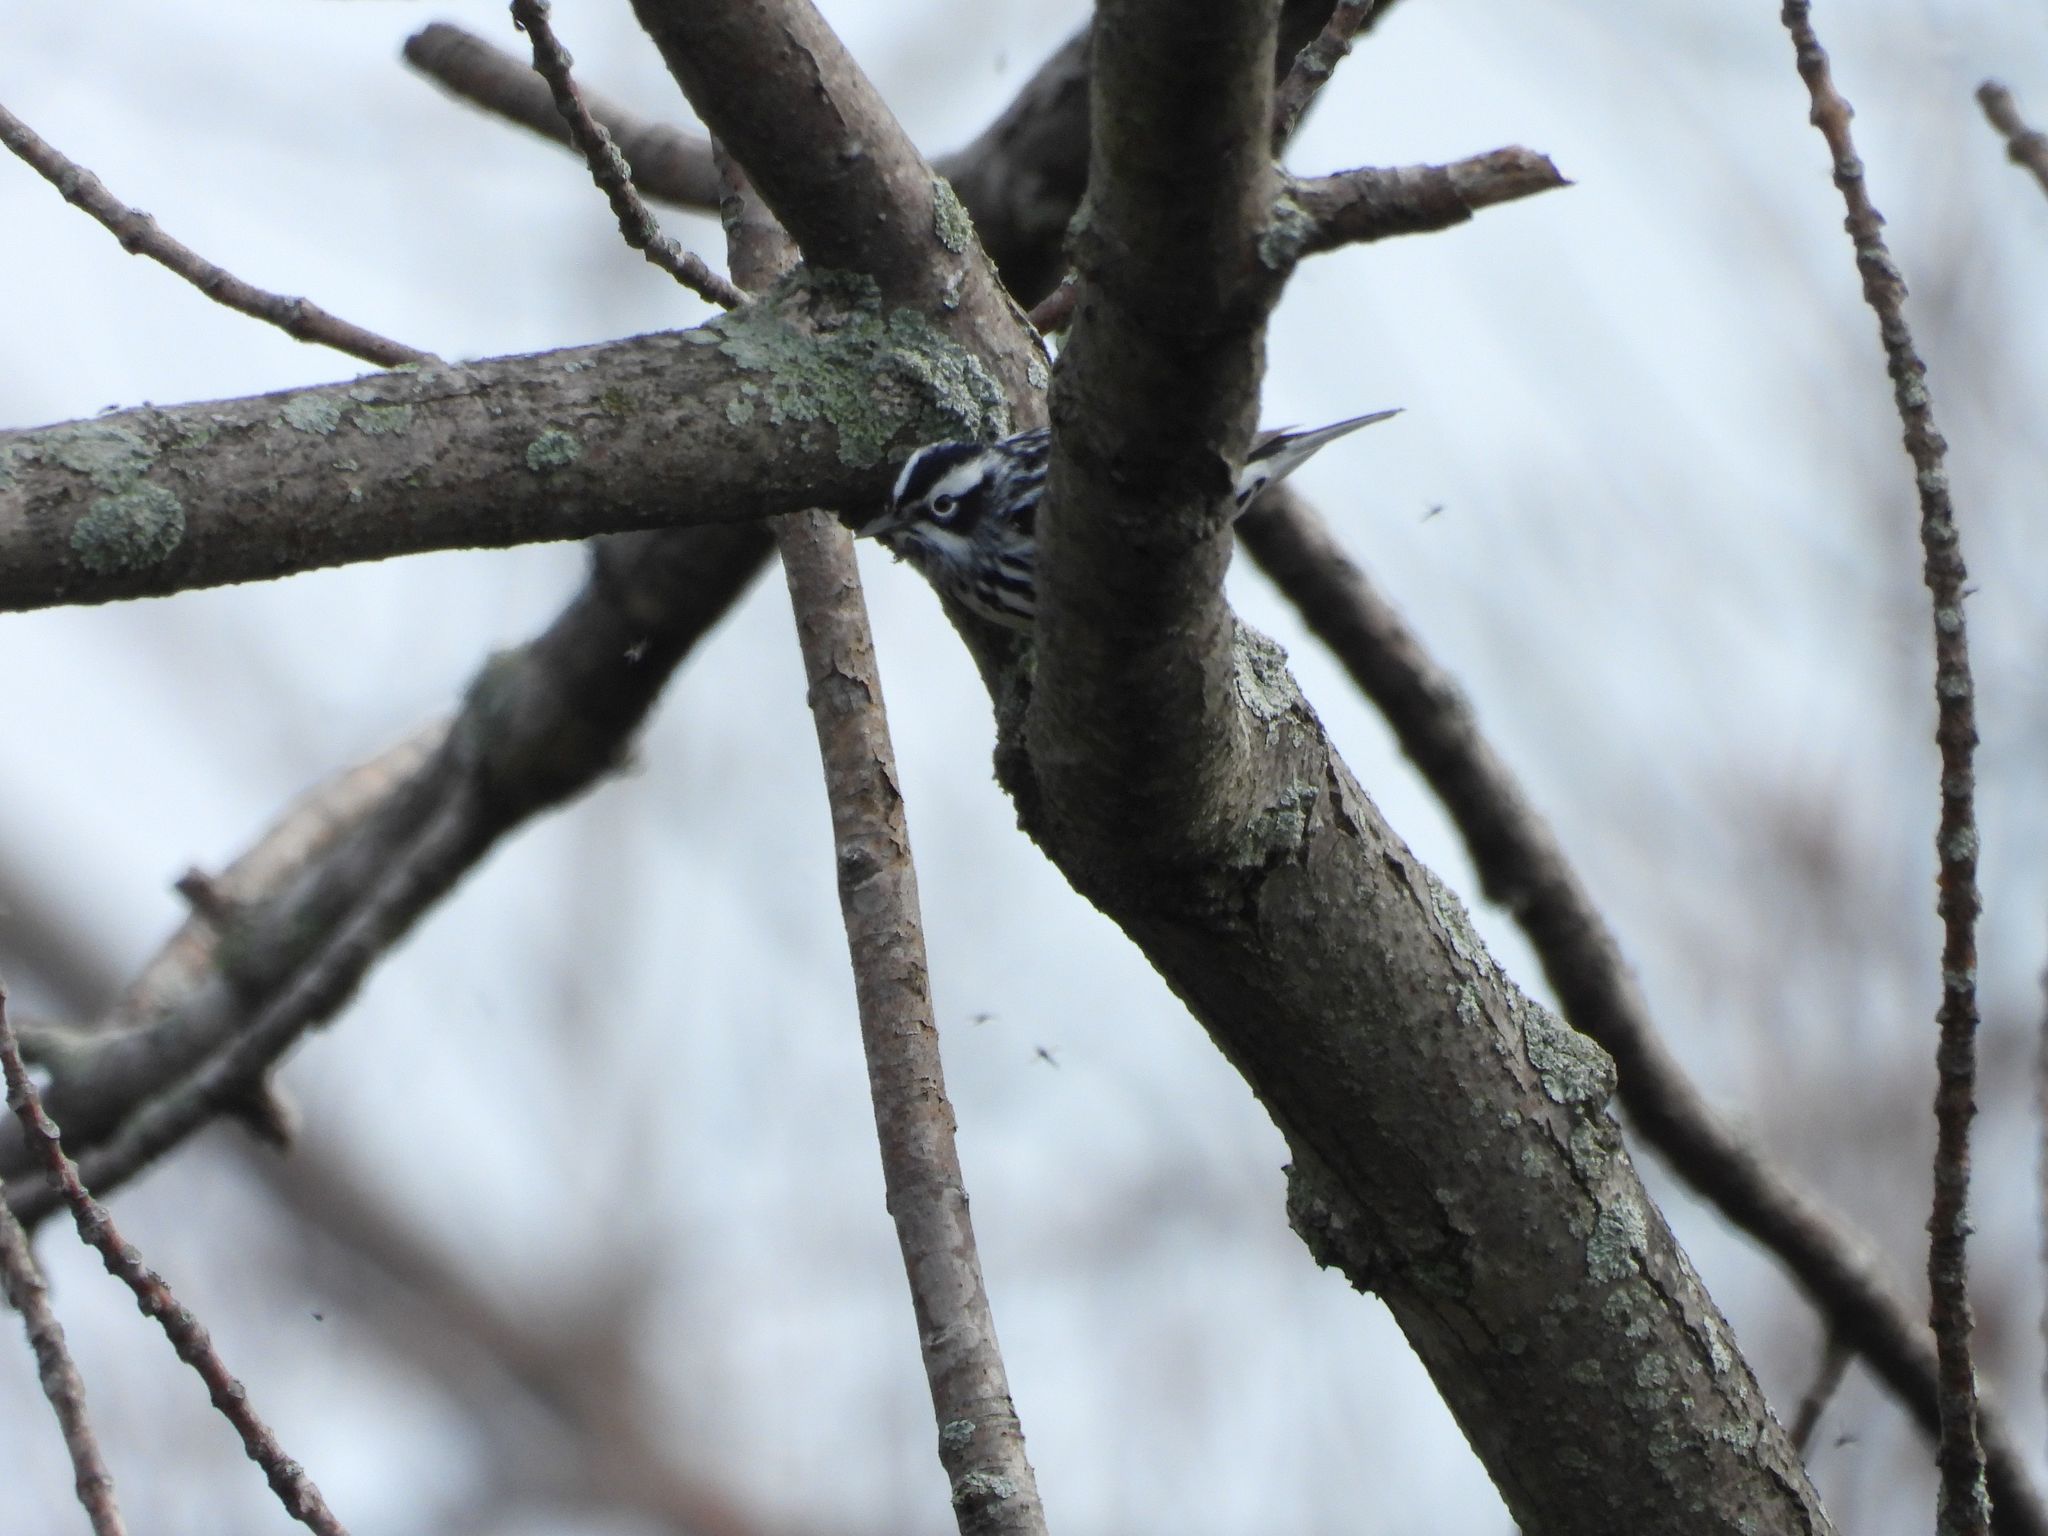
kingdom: Animalia
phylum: Chordata
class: Aves
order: Passeriformes
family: Parulidae
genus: Mniotilta
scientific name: Mniotilta varia
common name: Black-and-white warbler
